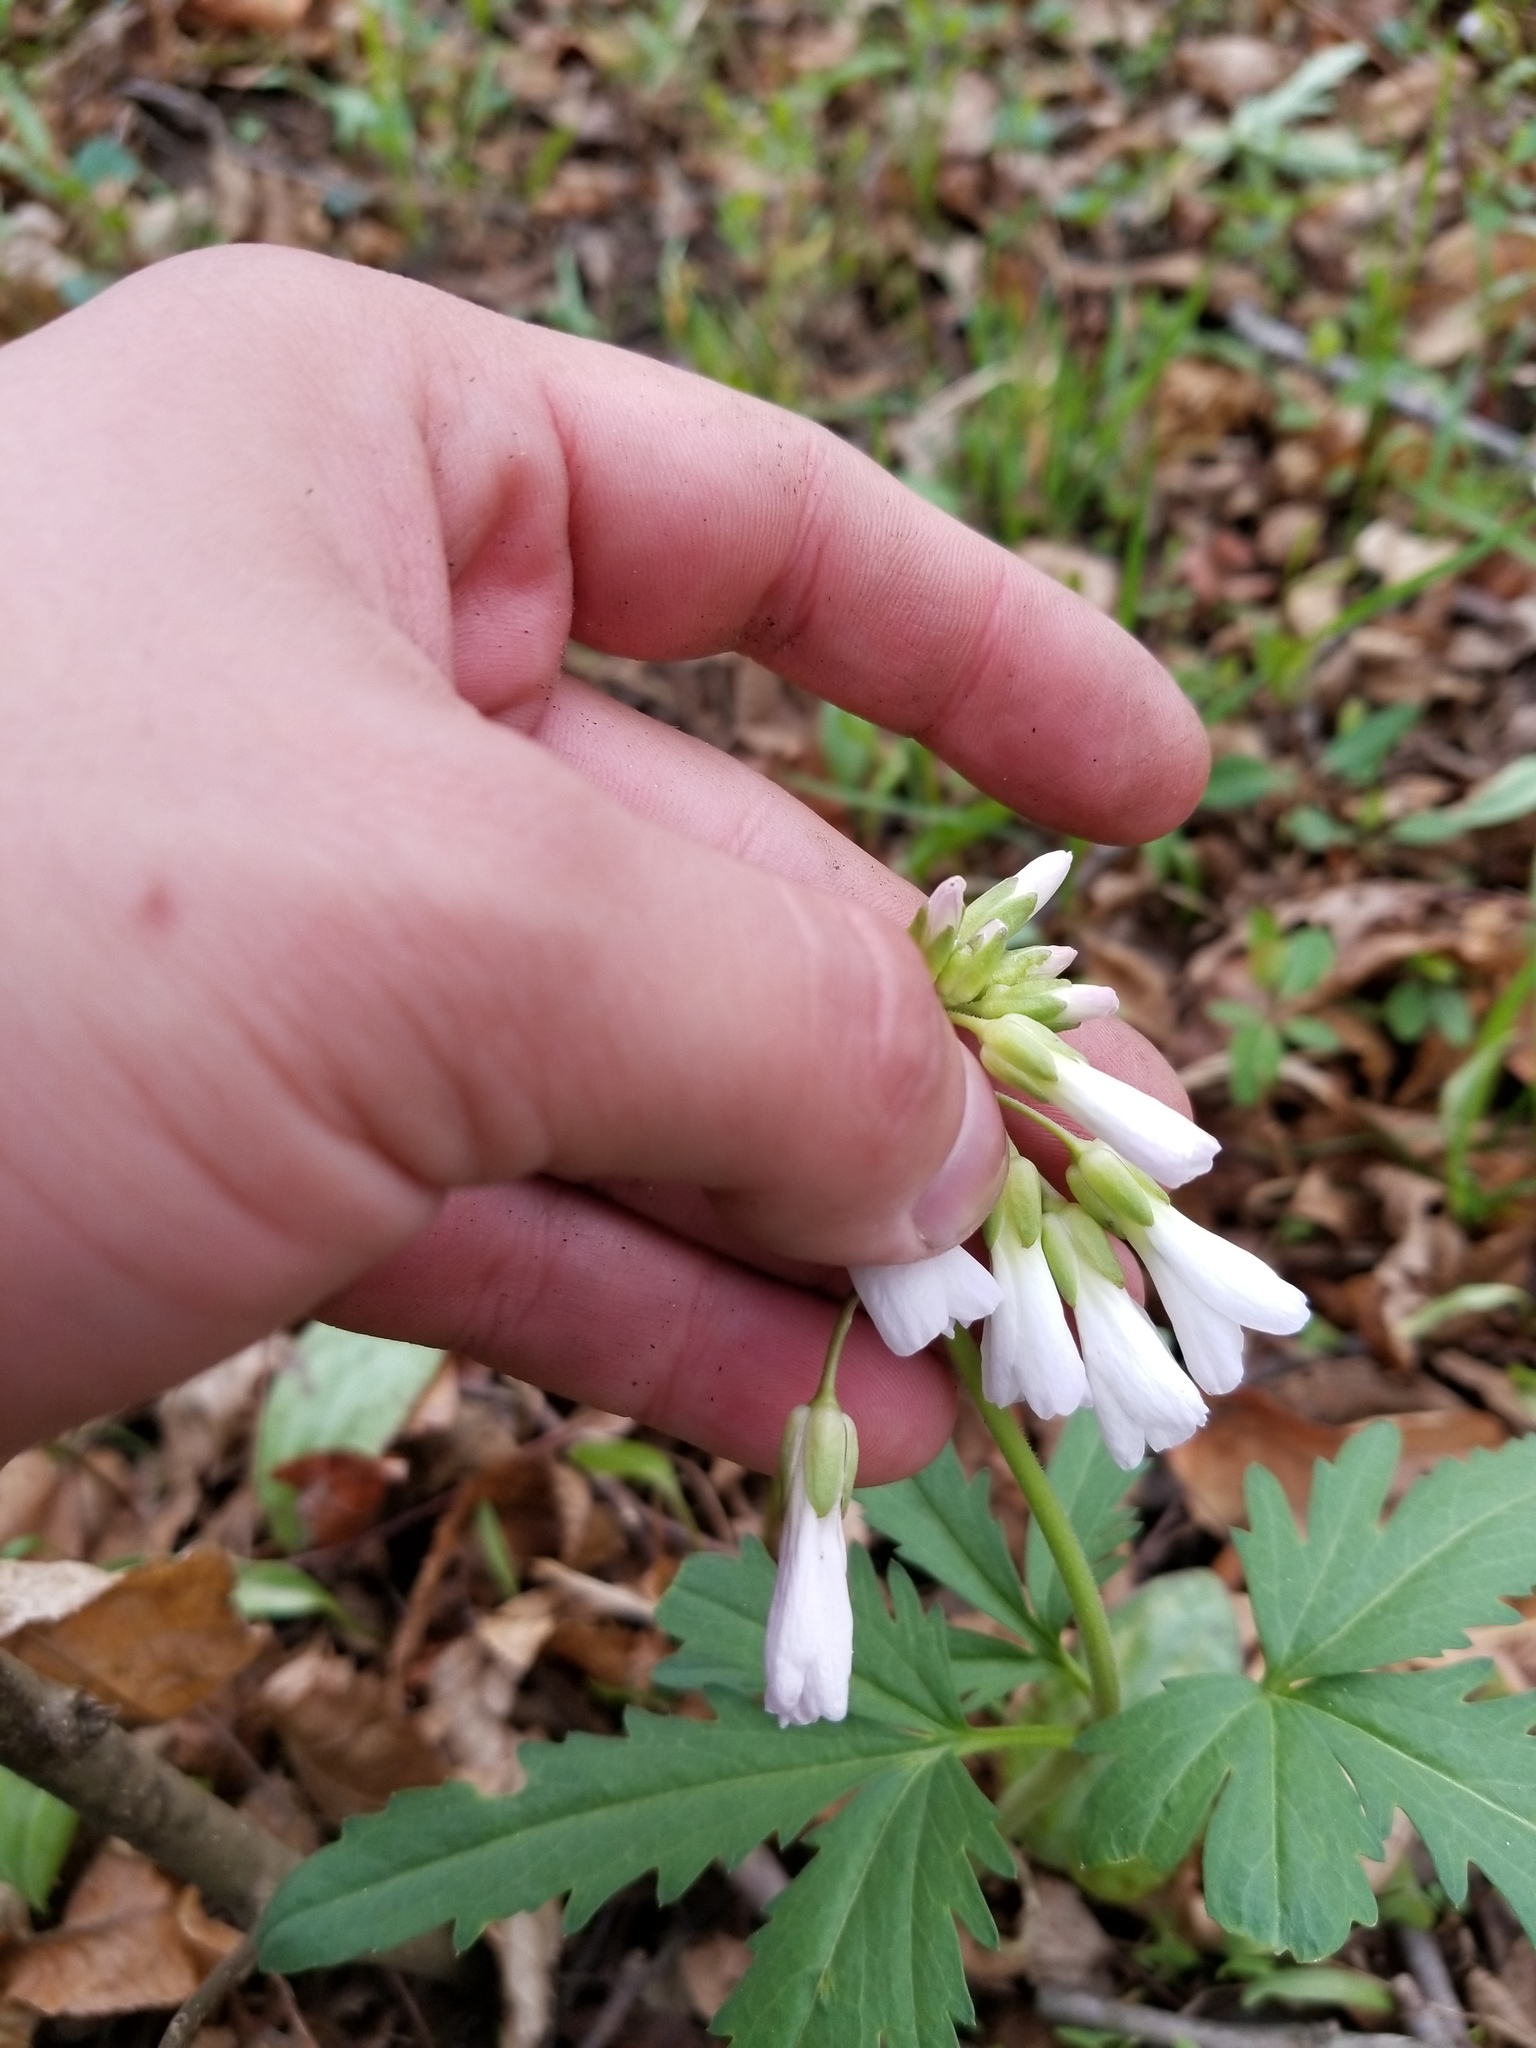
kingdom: Plantae
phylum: Tracheophyta
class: Magnoliopsida
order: Brassicales
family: Brassicaceae
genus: Cardamine
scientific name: Cardamine concatenata
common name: Cut-leaf toothcup
